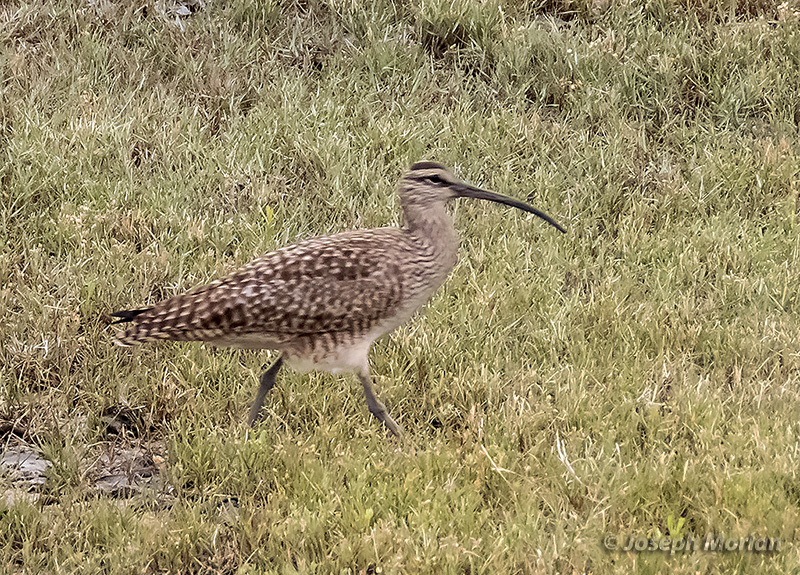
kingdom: Animalia
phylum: Chordata
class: Aves
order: Charadriiformes
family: Scolopacidae
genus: Numenius
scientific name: Numenius phaeopus
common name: Whimbrel
